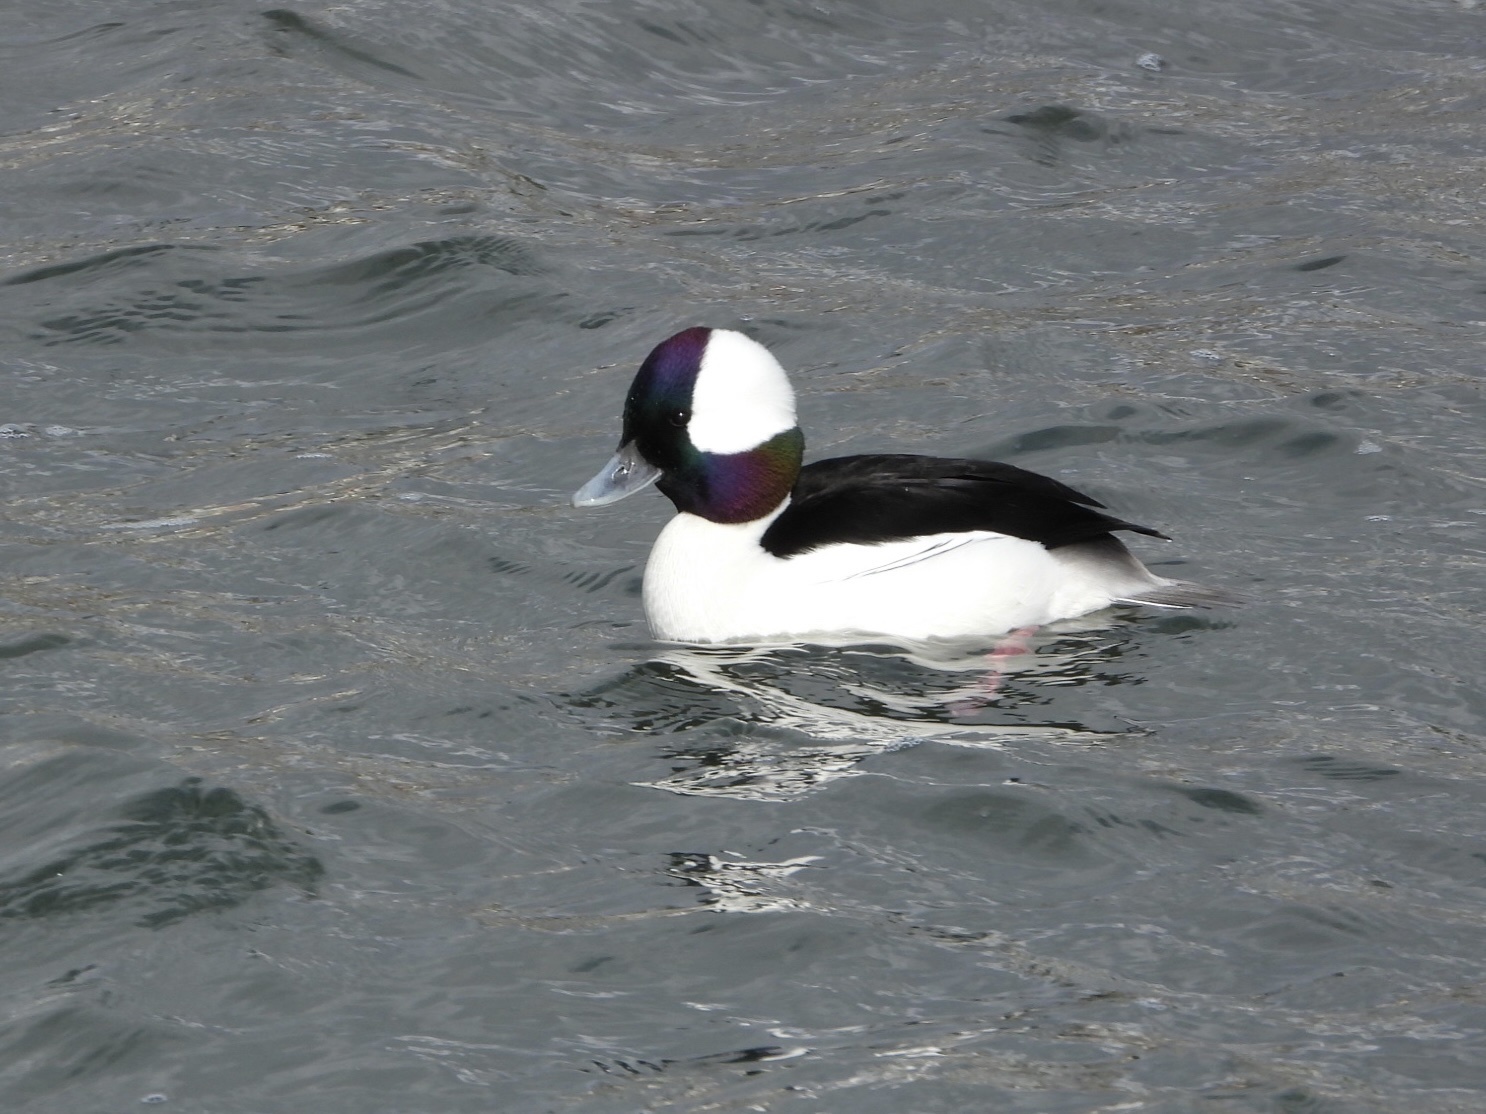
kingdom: Animalia
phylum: Chordata
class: Aves
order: Anseriformes
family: Anatidae
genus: Bucephala
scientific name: Bucephala albeola
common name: Bufflehead
